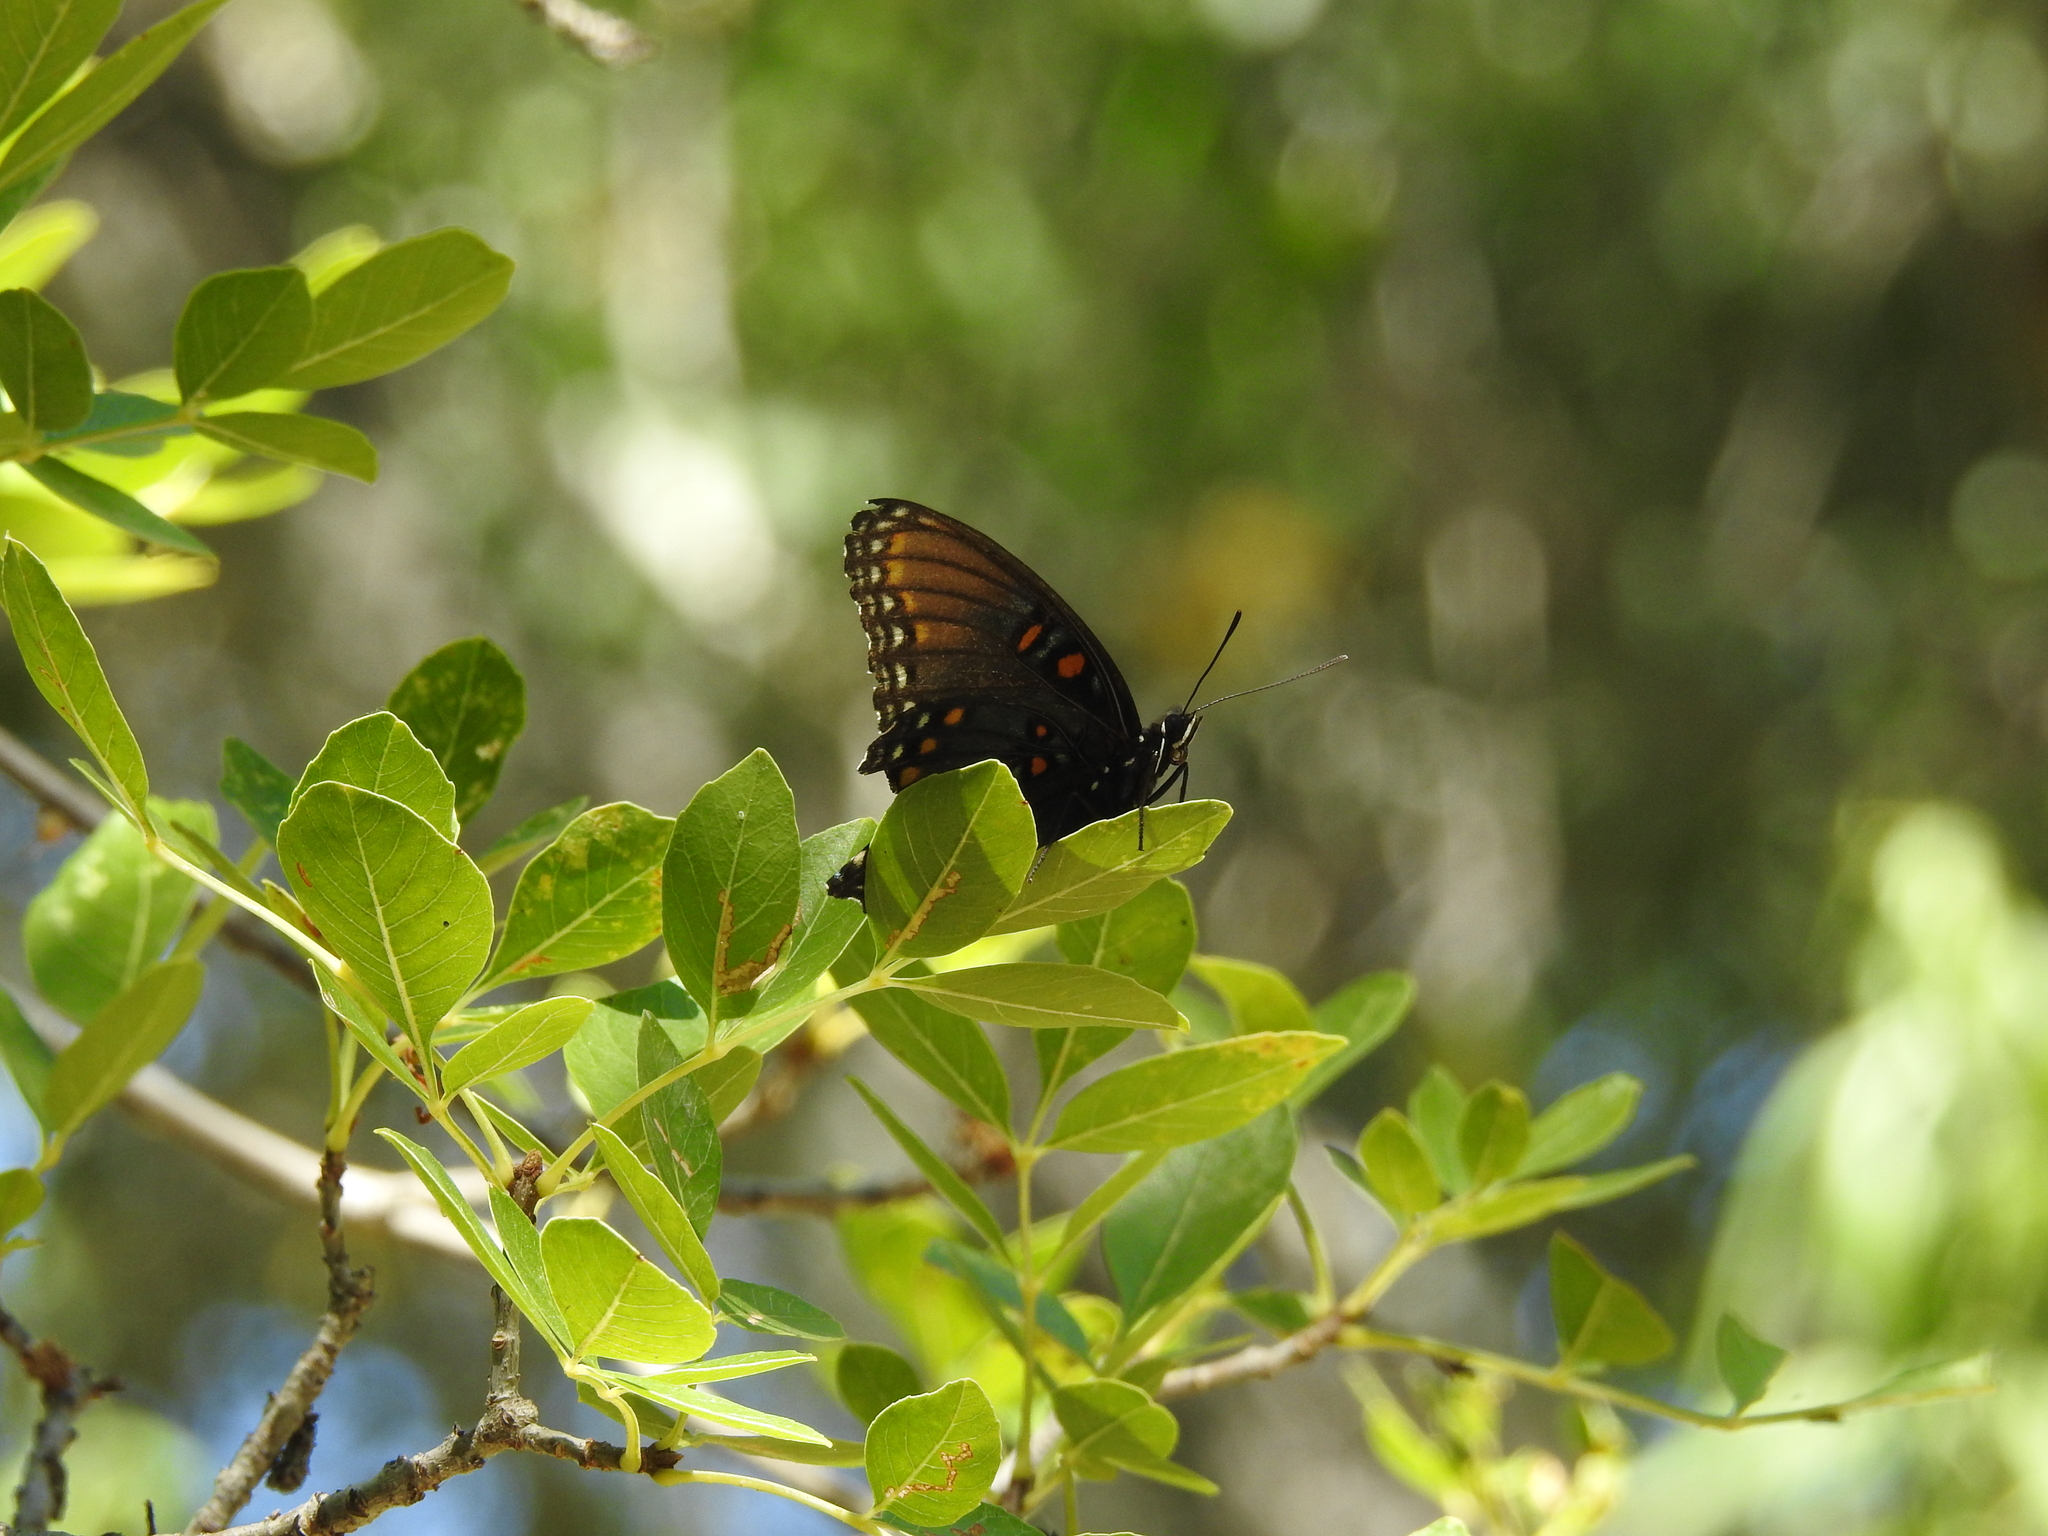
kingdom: Animalia
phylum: Arthropoda
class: Insecta
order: Lepidoptera
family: Nymphalidae
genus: Limenitis
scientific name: Limenitis arthemis
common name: Red-spotted admiral
